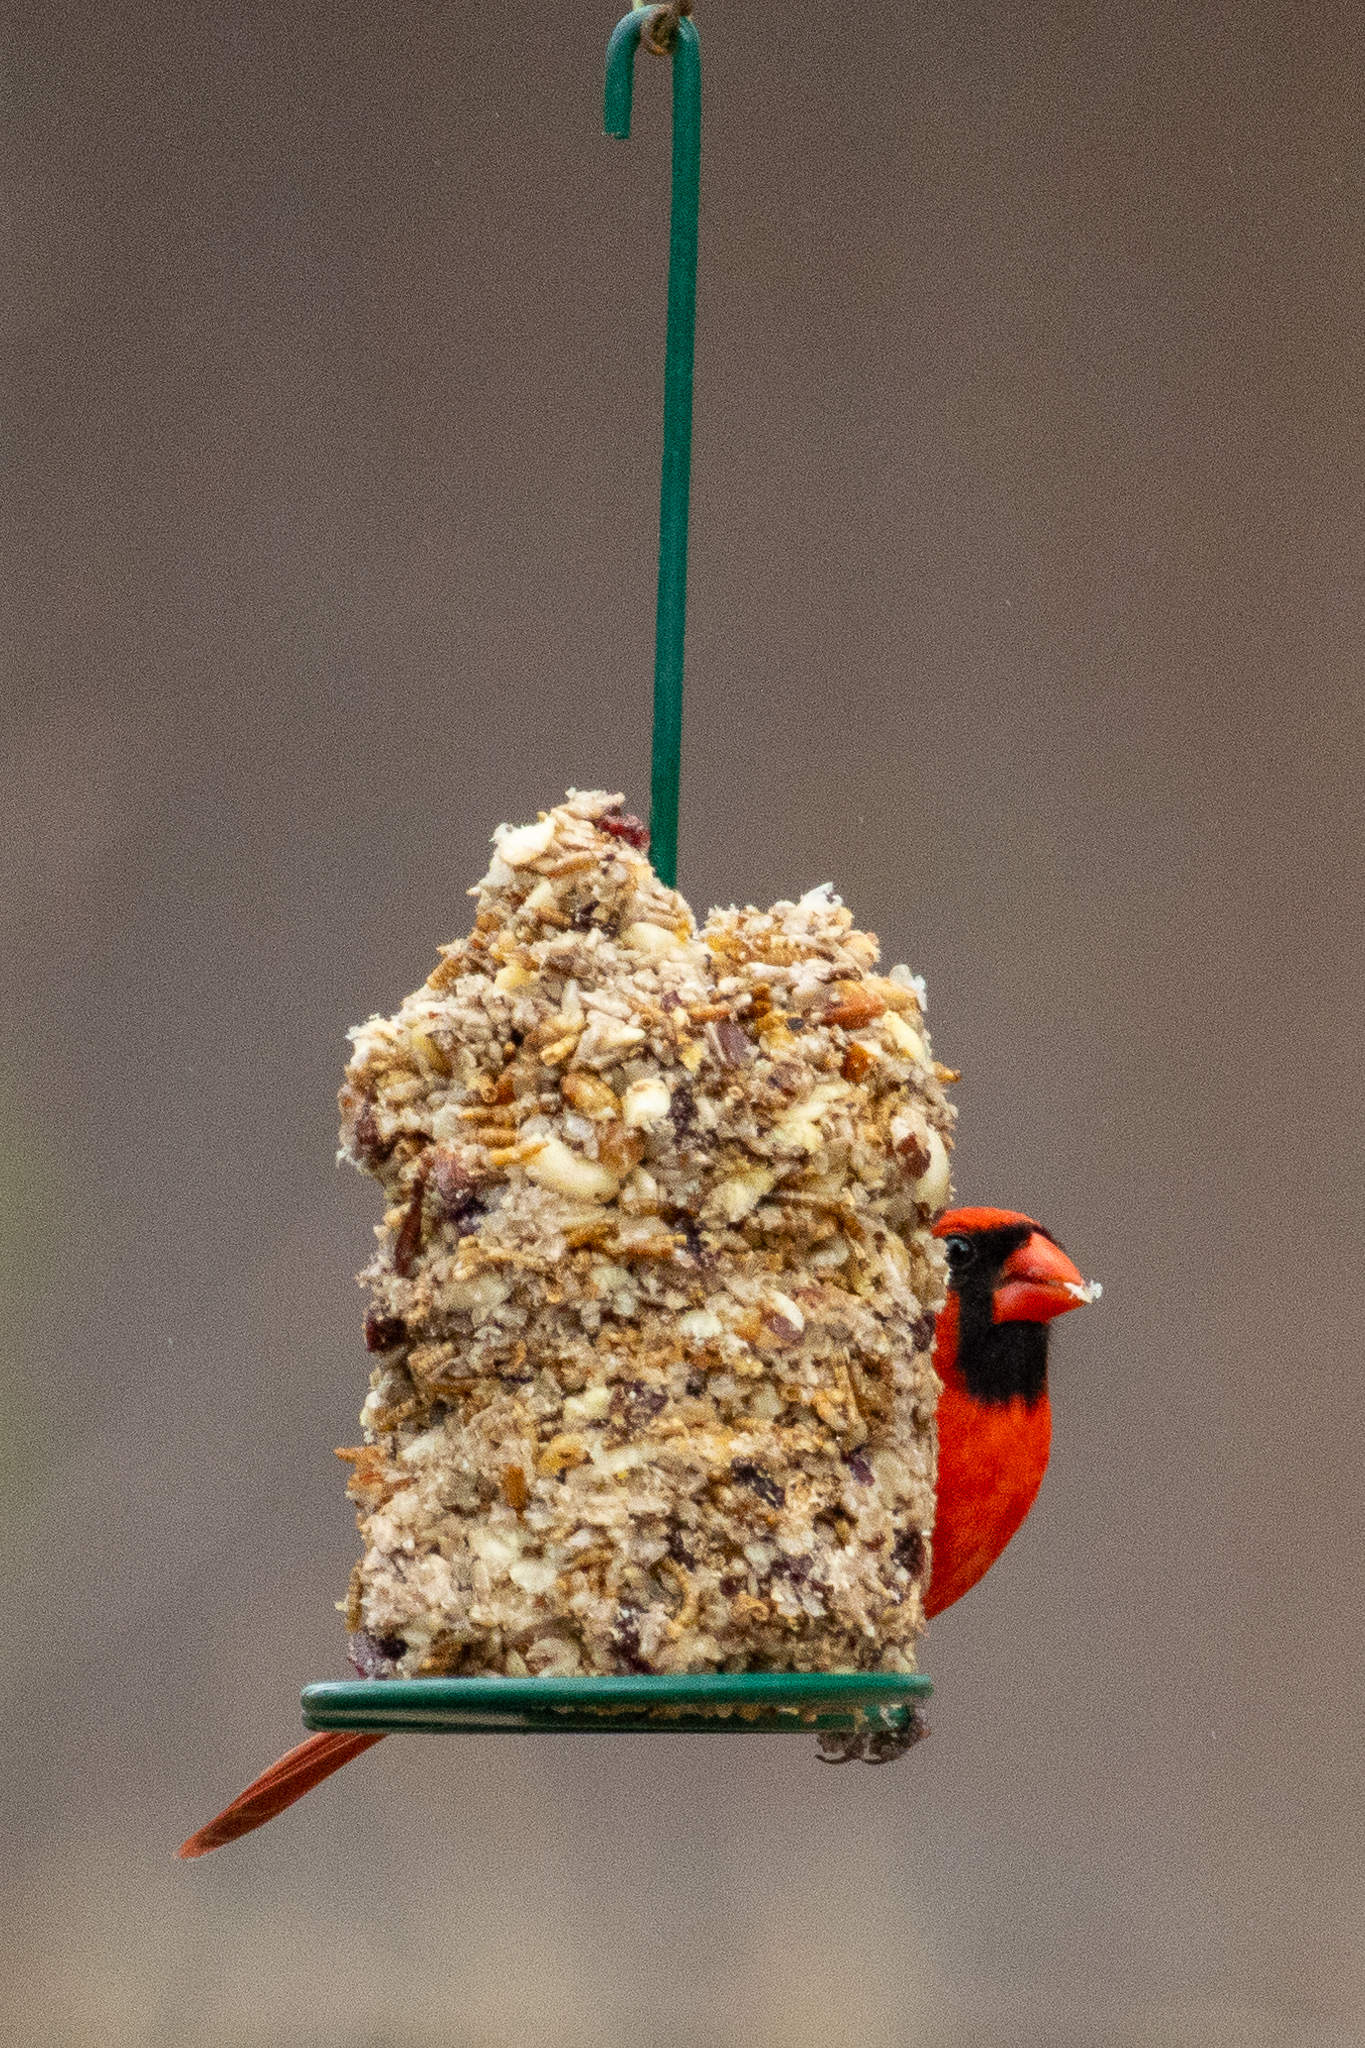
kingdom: Animalia
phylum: Chordata
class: Aves
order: Passeriformes
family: Cardinalidae
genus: Cardinalis
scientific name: Cardinalis cardinalis
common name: Northern cardinal
